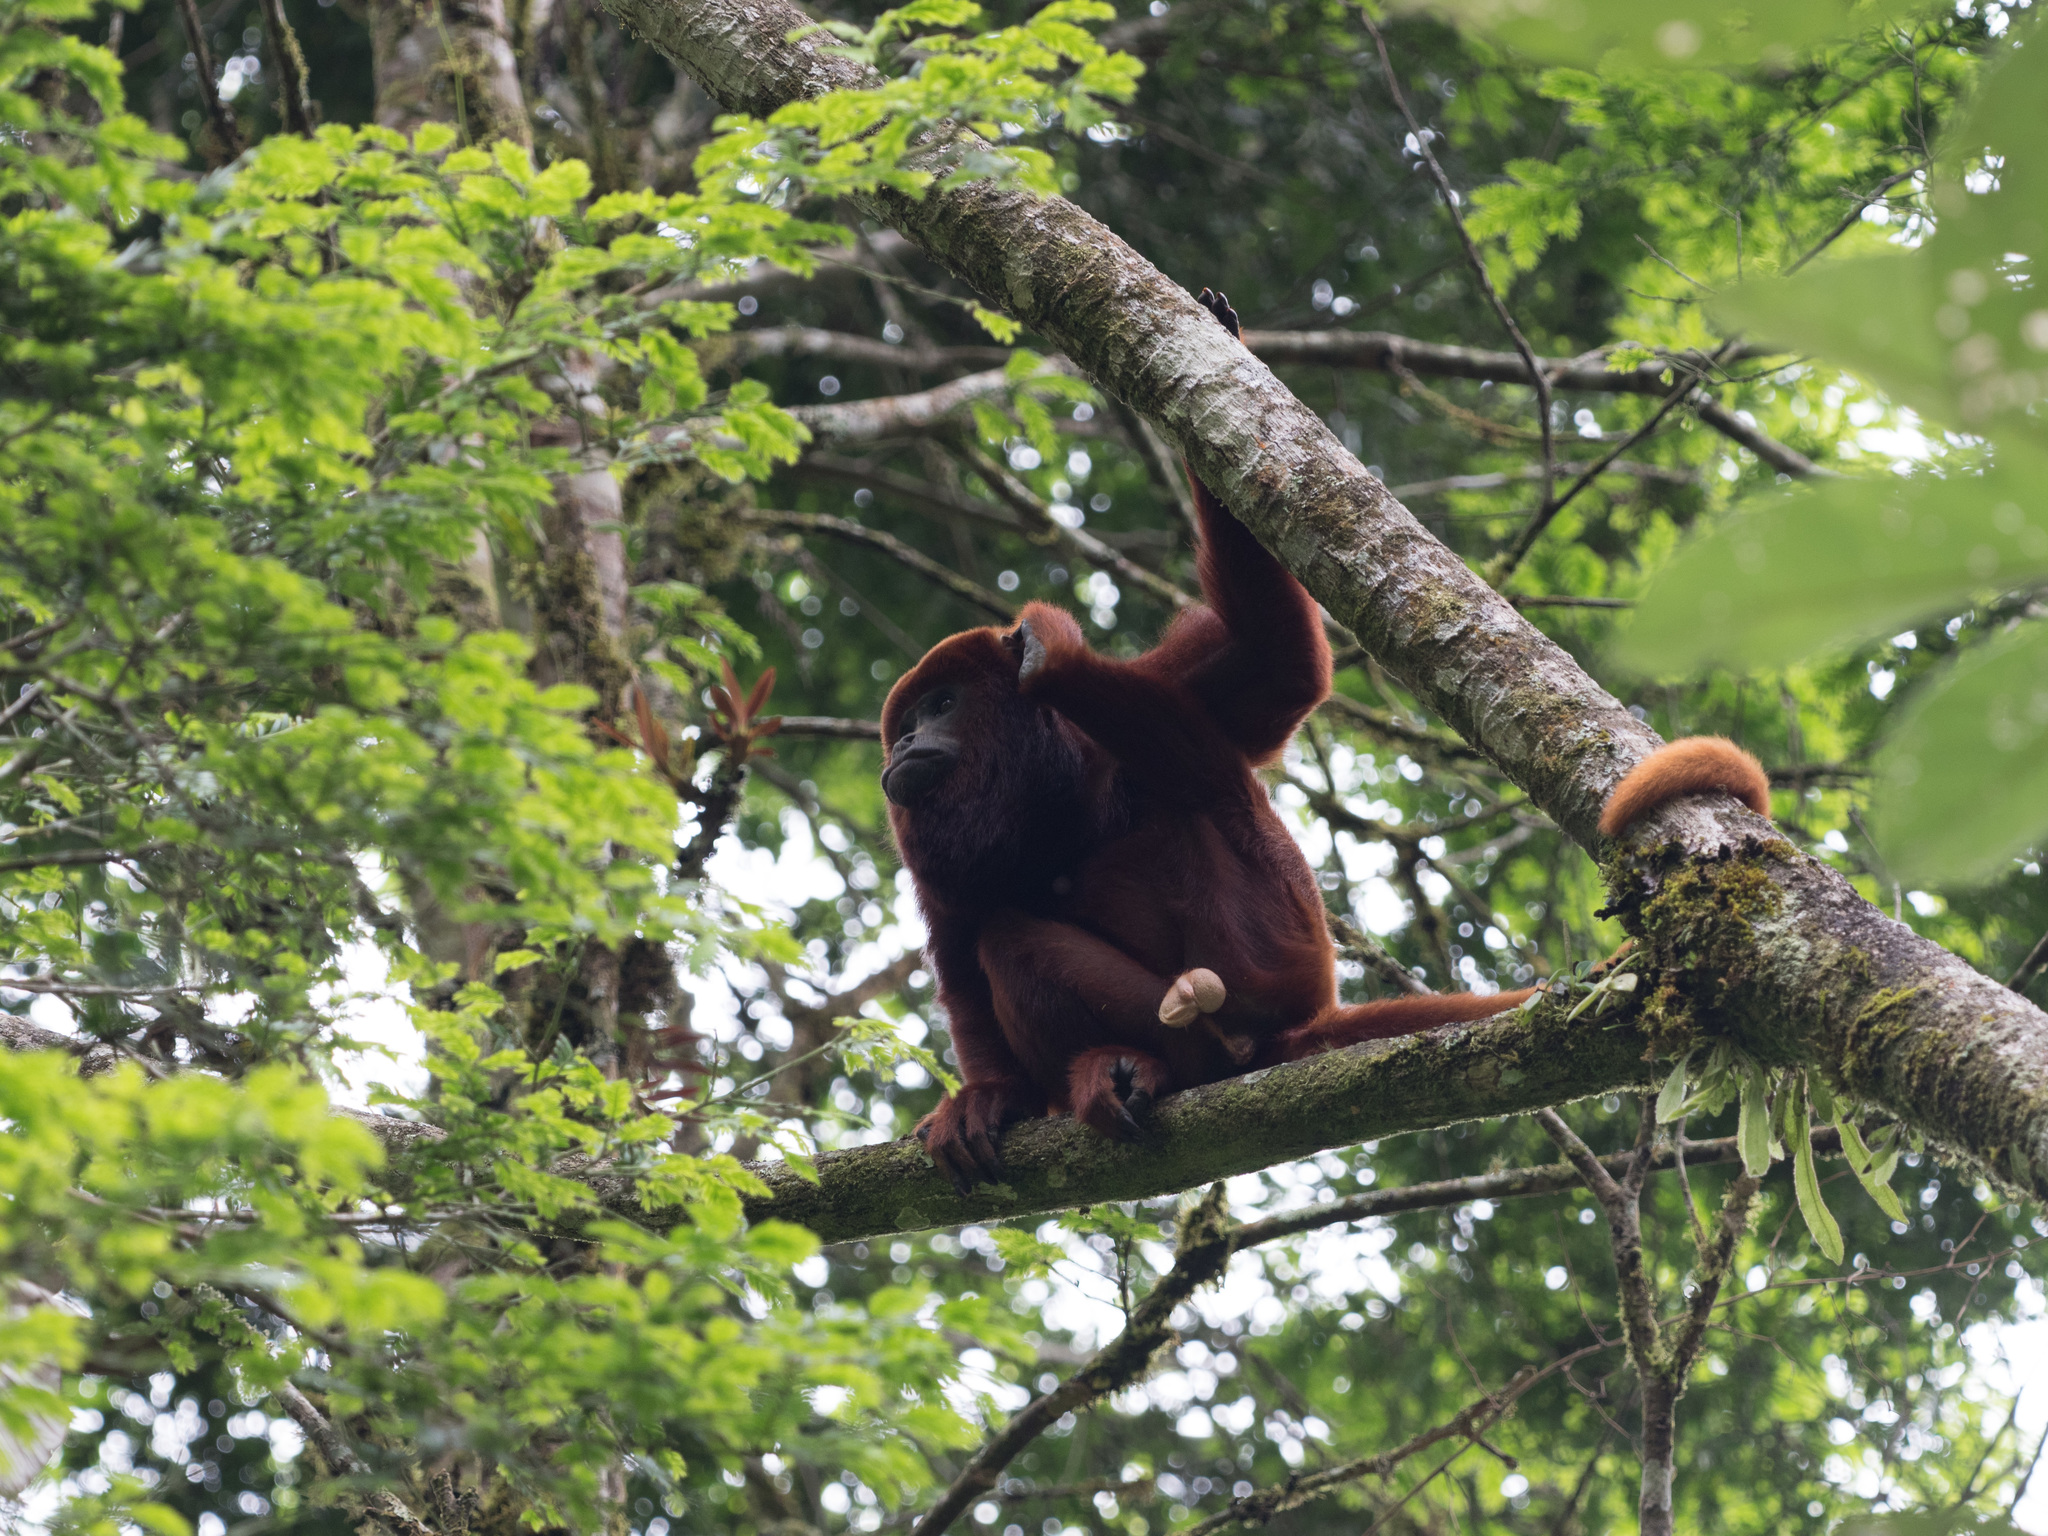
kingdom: Animalia
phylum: Chordata
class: Mammalia
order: Primates
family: Atelidae
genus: Alouatta
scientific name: Alouatta seniculus
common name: Venezuelan red howler
